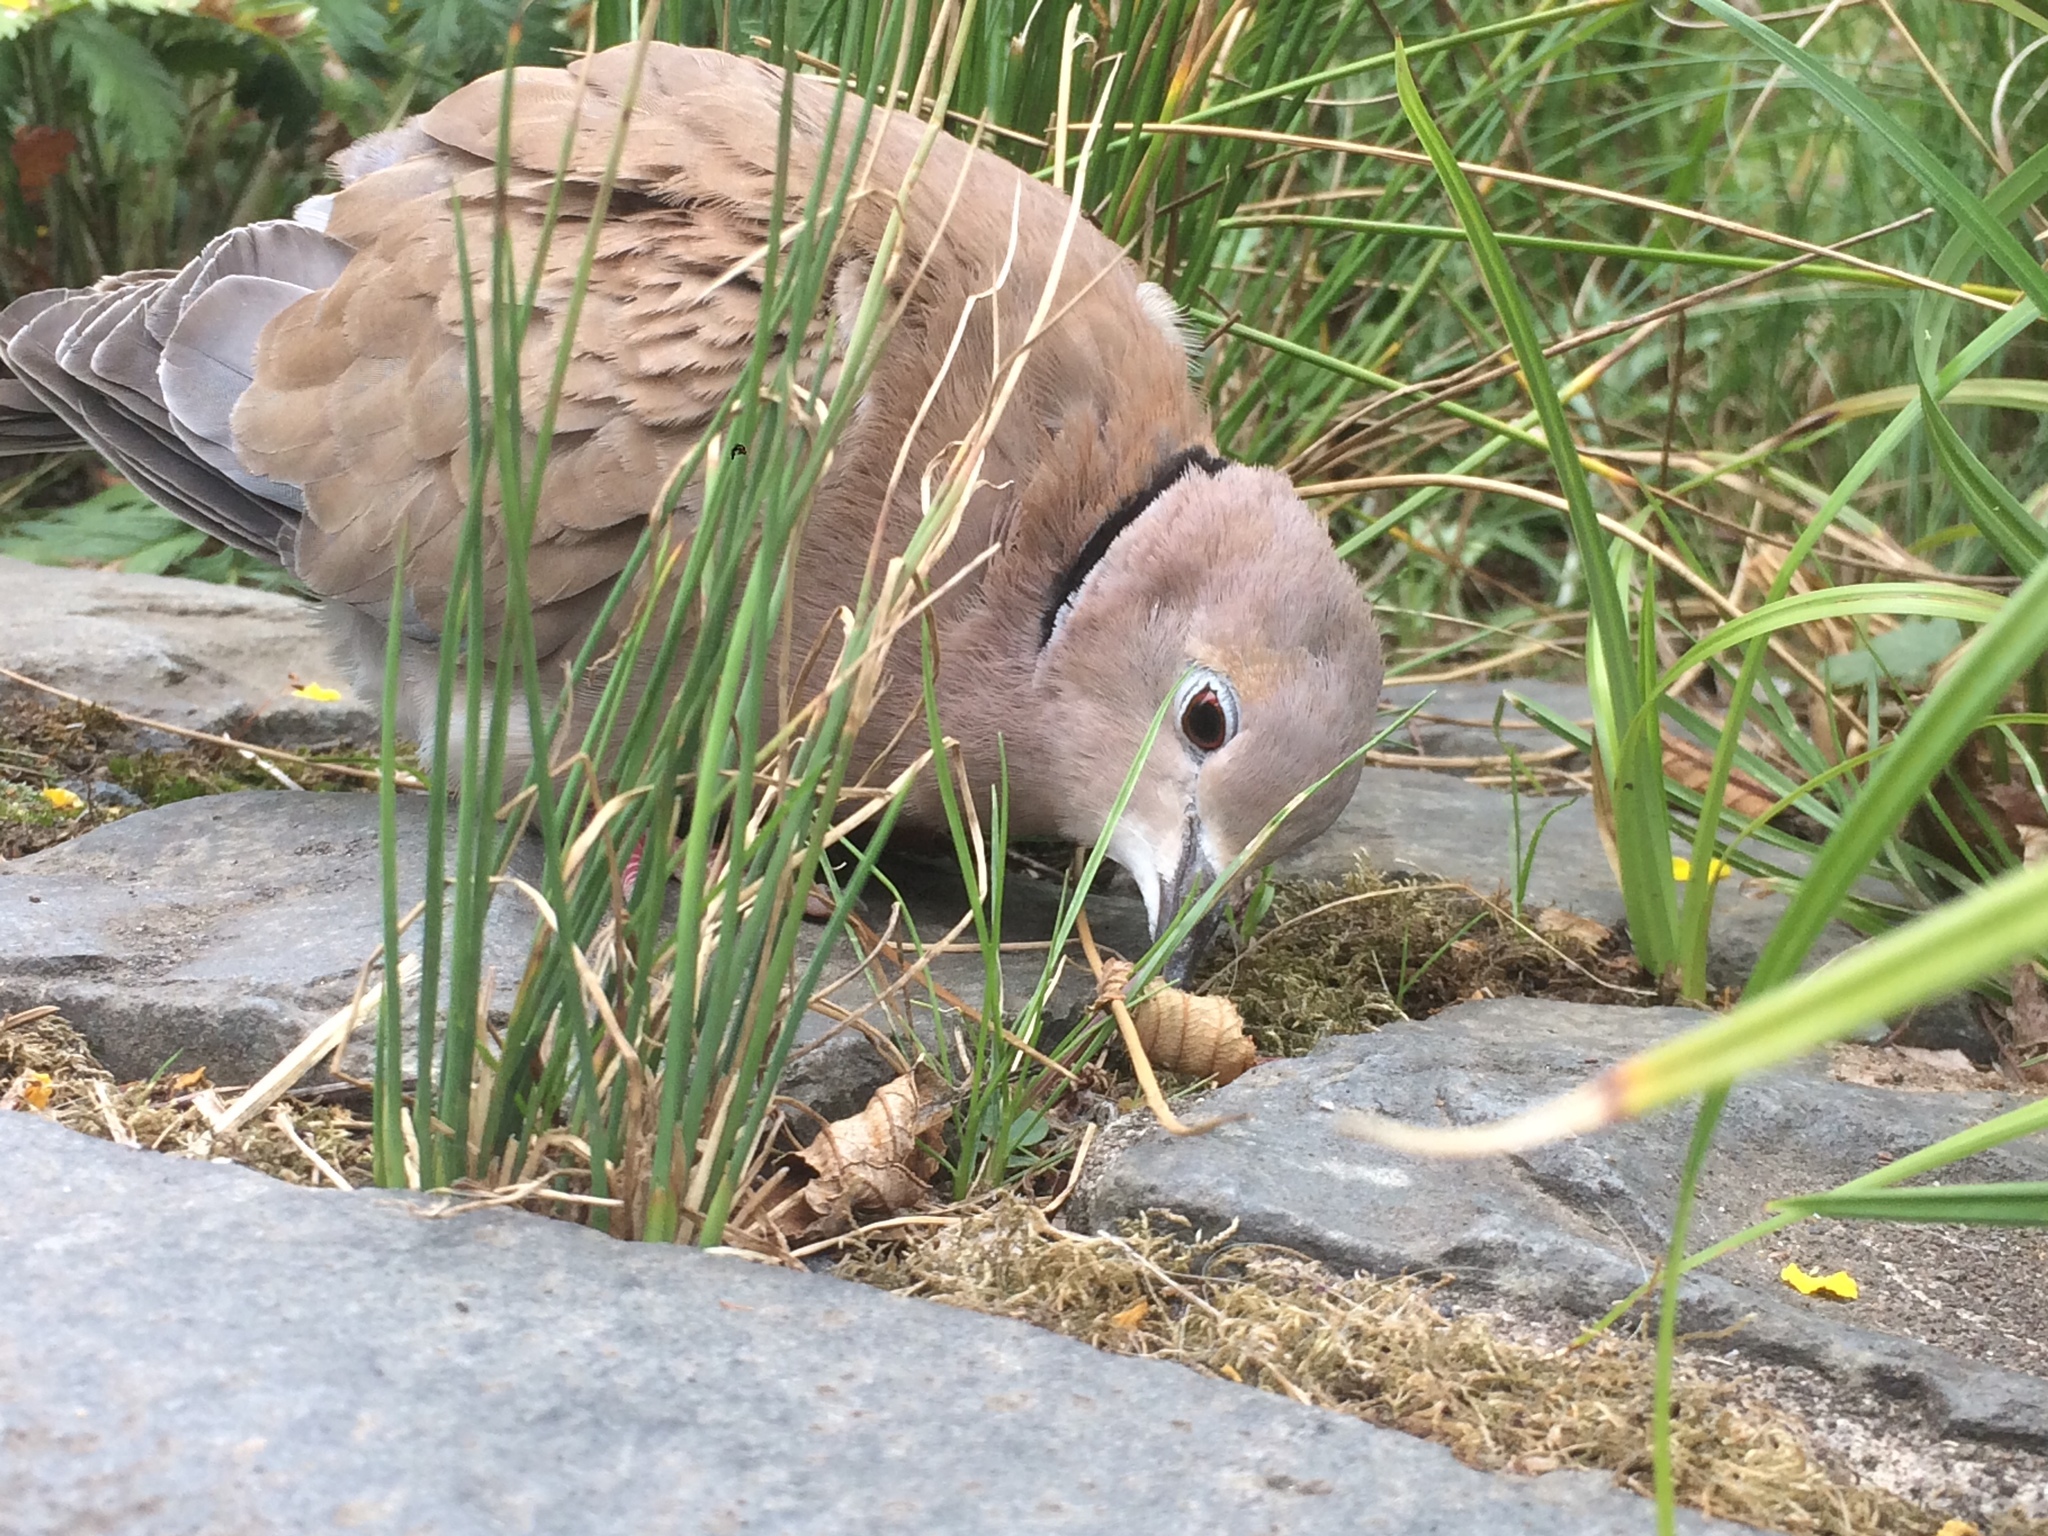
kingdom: Animalia
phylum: Chordata
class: Aves
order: Columbiformes
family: Columbidae
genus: Streptopelia
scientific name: Streptopelia decaocto
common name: Eurasian collared dove
